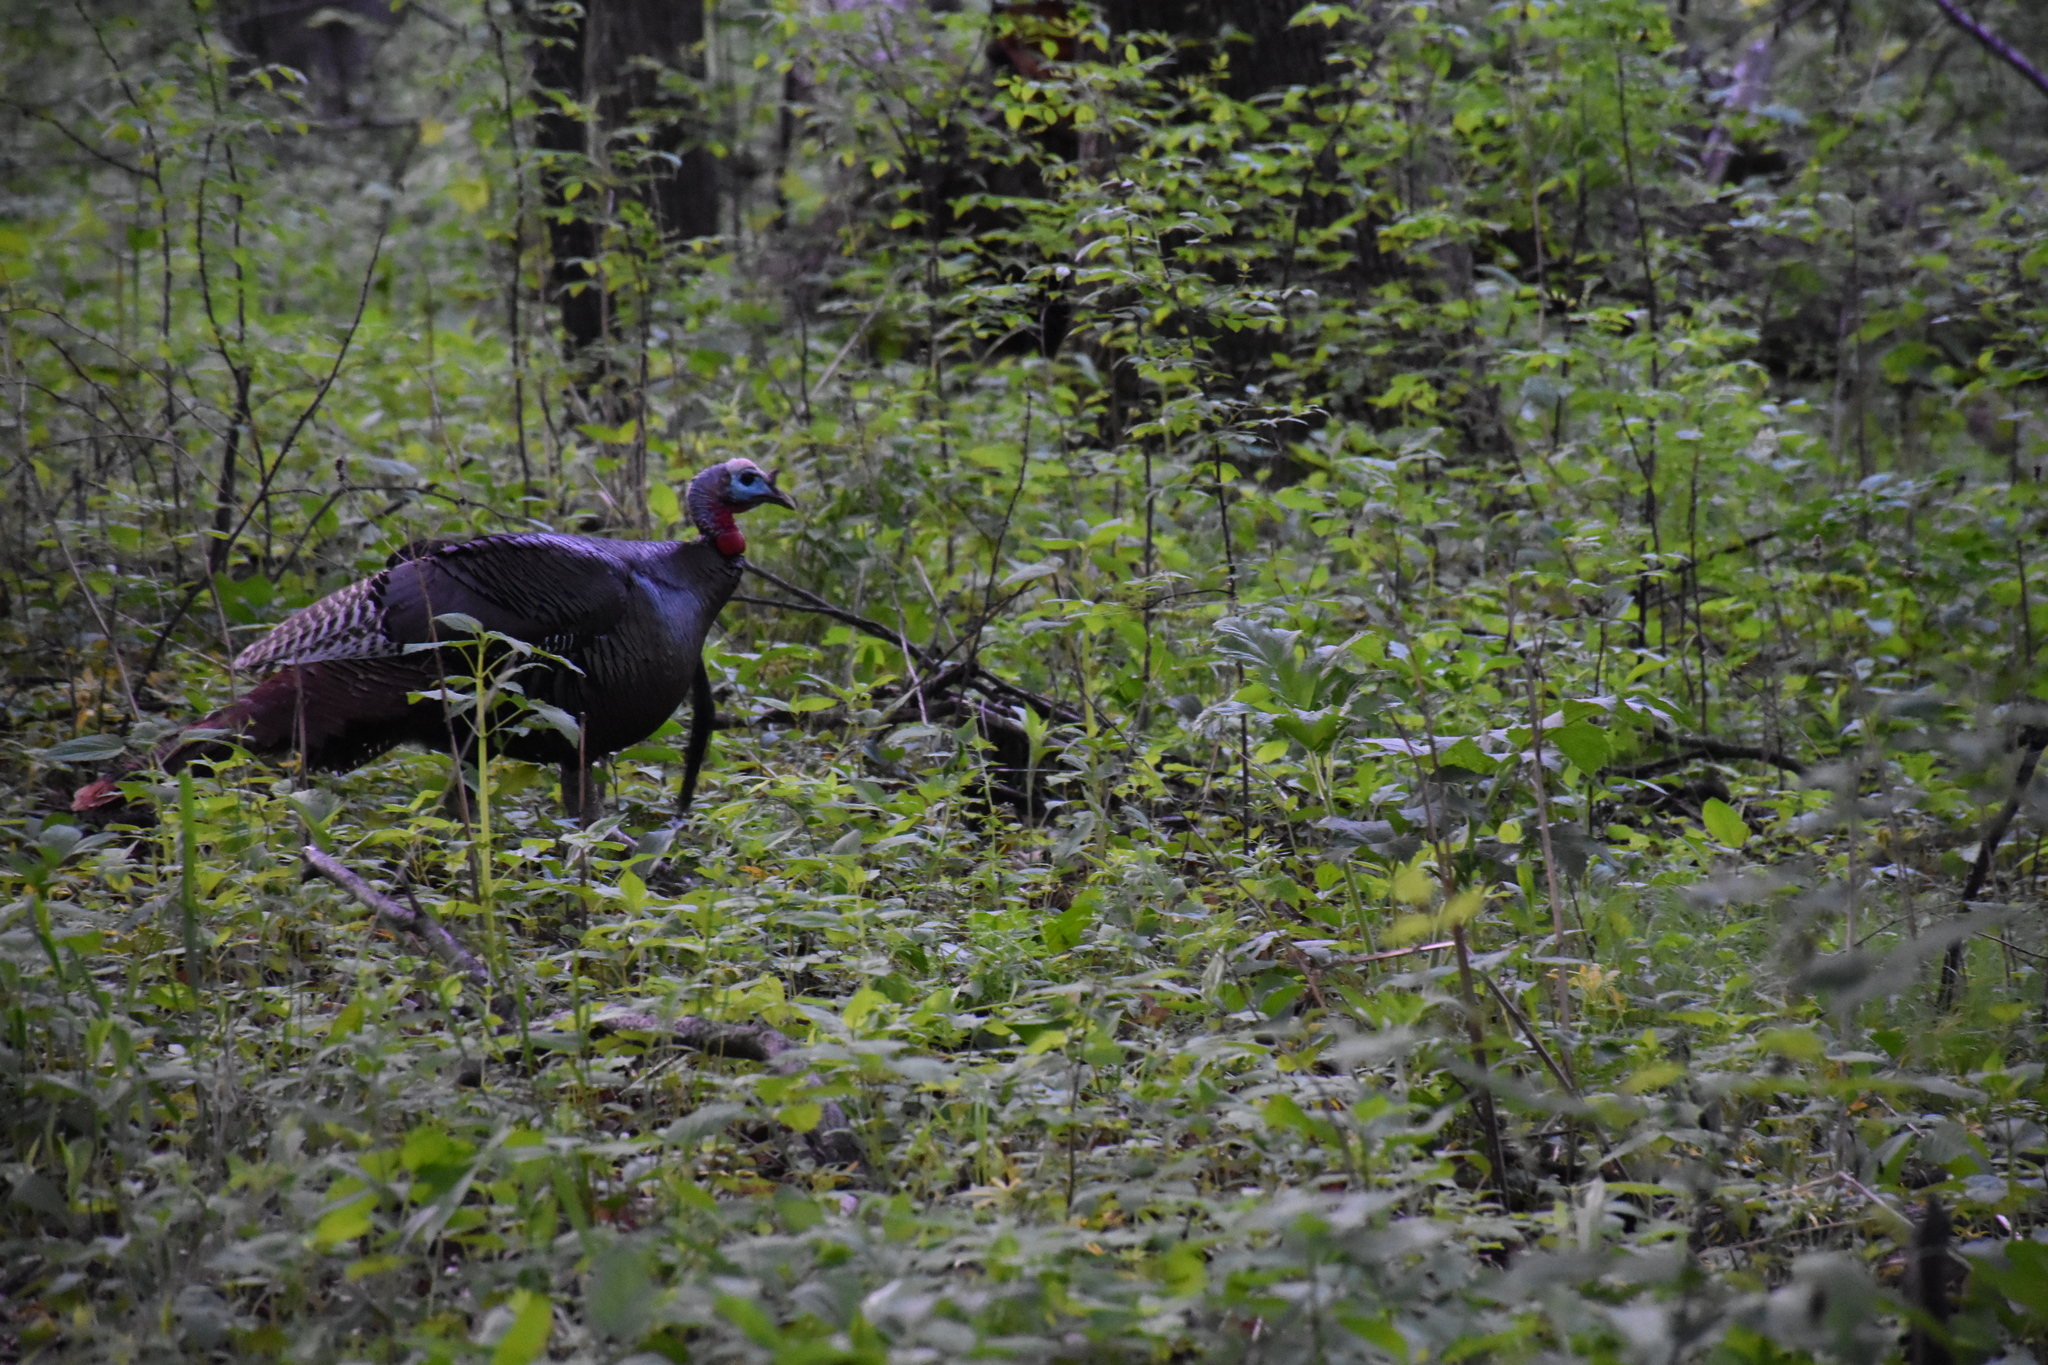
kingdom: Animalia
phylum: Chordata
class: Aves
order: Galliformes
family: Phasianidae
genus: Meleagris
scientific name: Meleagris gallopavo
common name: Wild turkey
